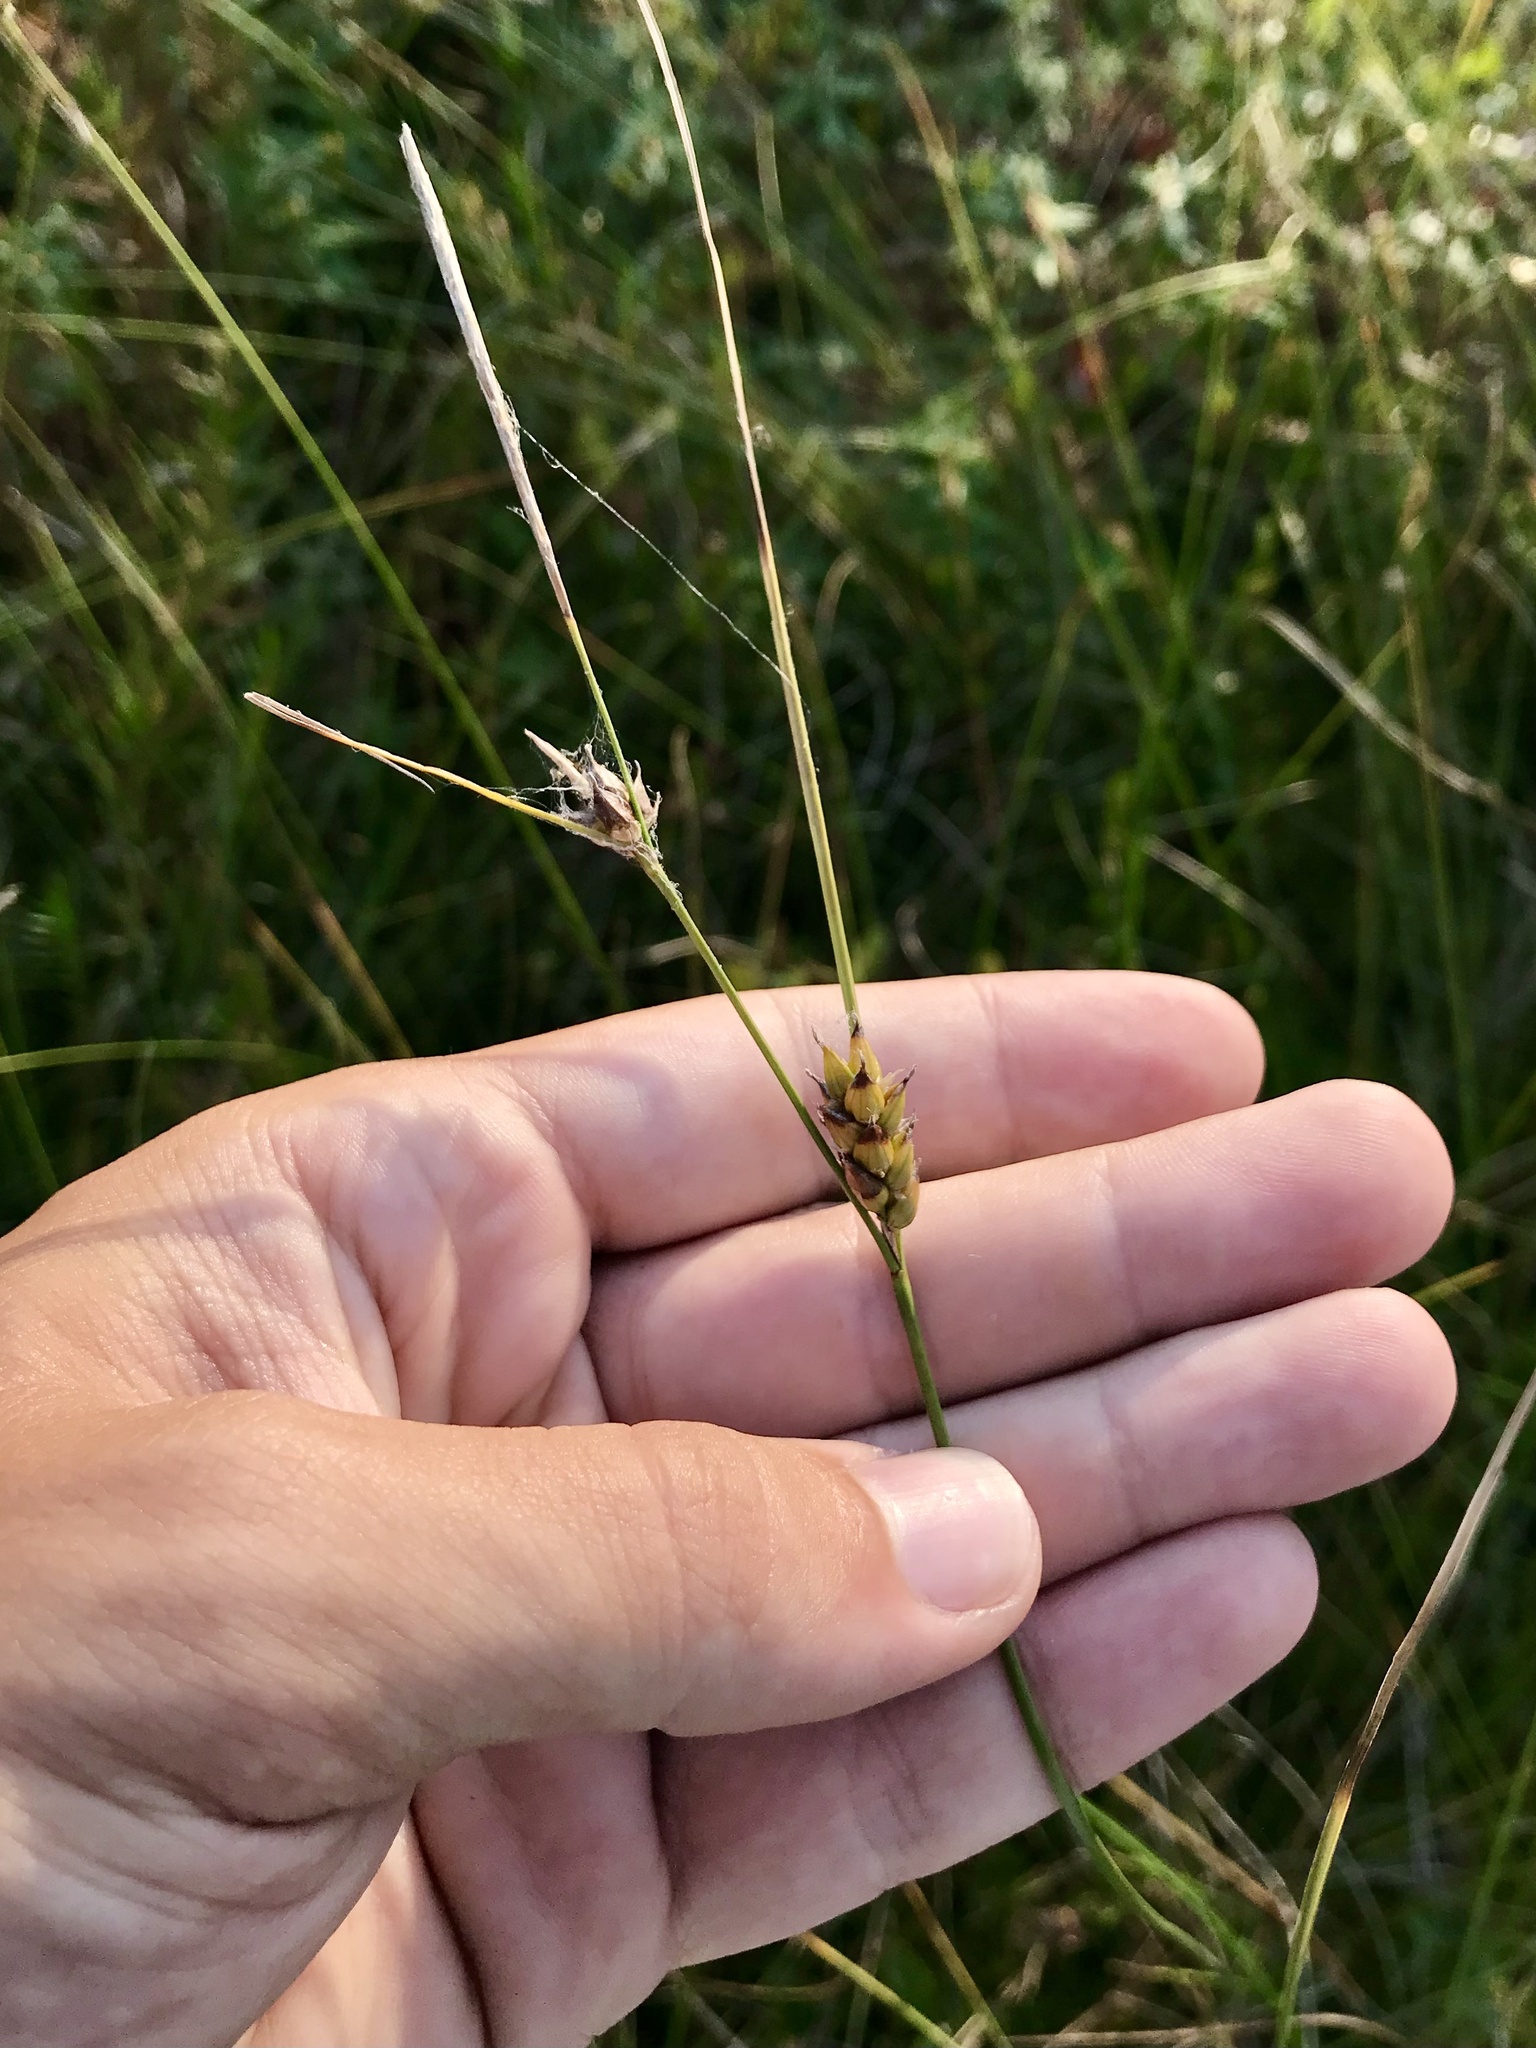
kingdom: Plantae
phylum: Tracheophyta
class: Liliopsida
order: Poales
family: Cyperaceae
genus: Carex
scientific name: Carex oligosperma
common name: Few-seed sedge
